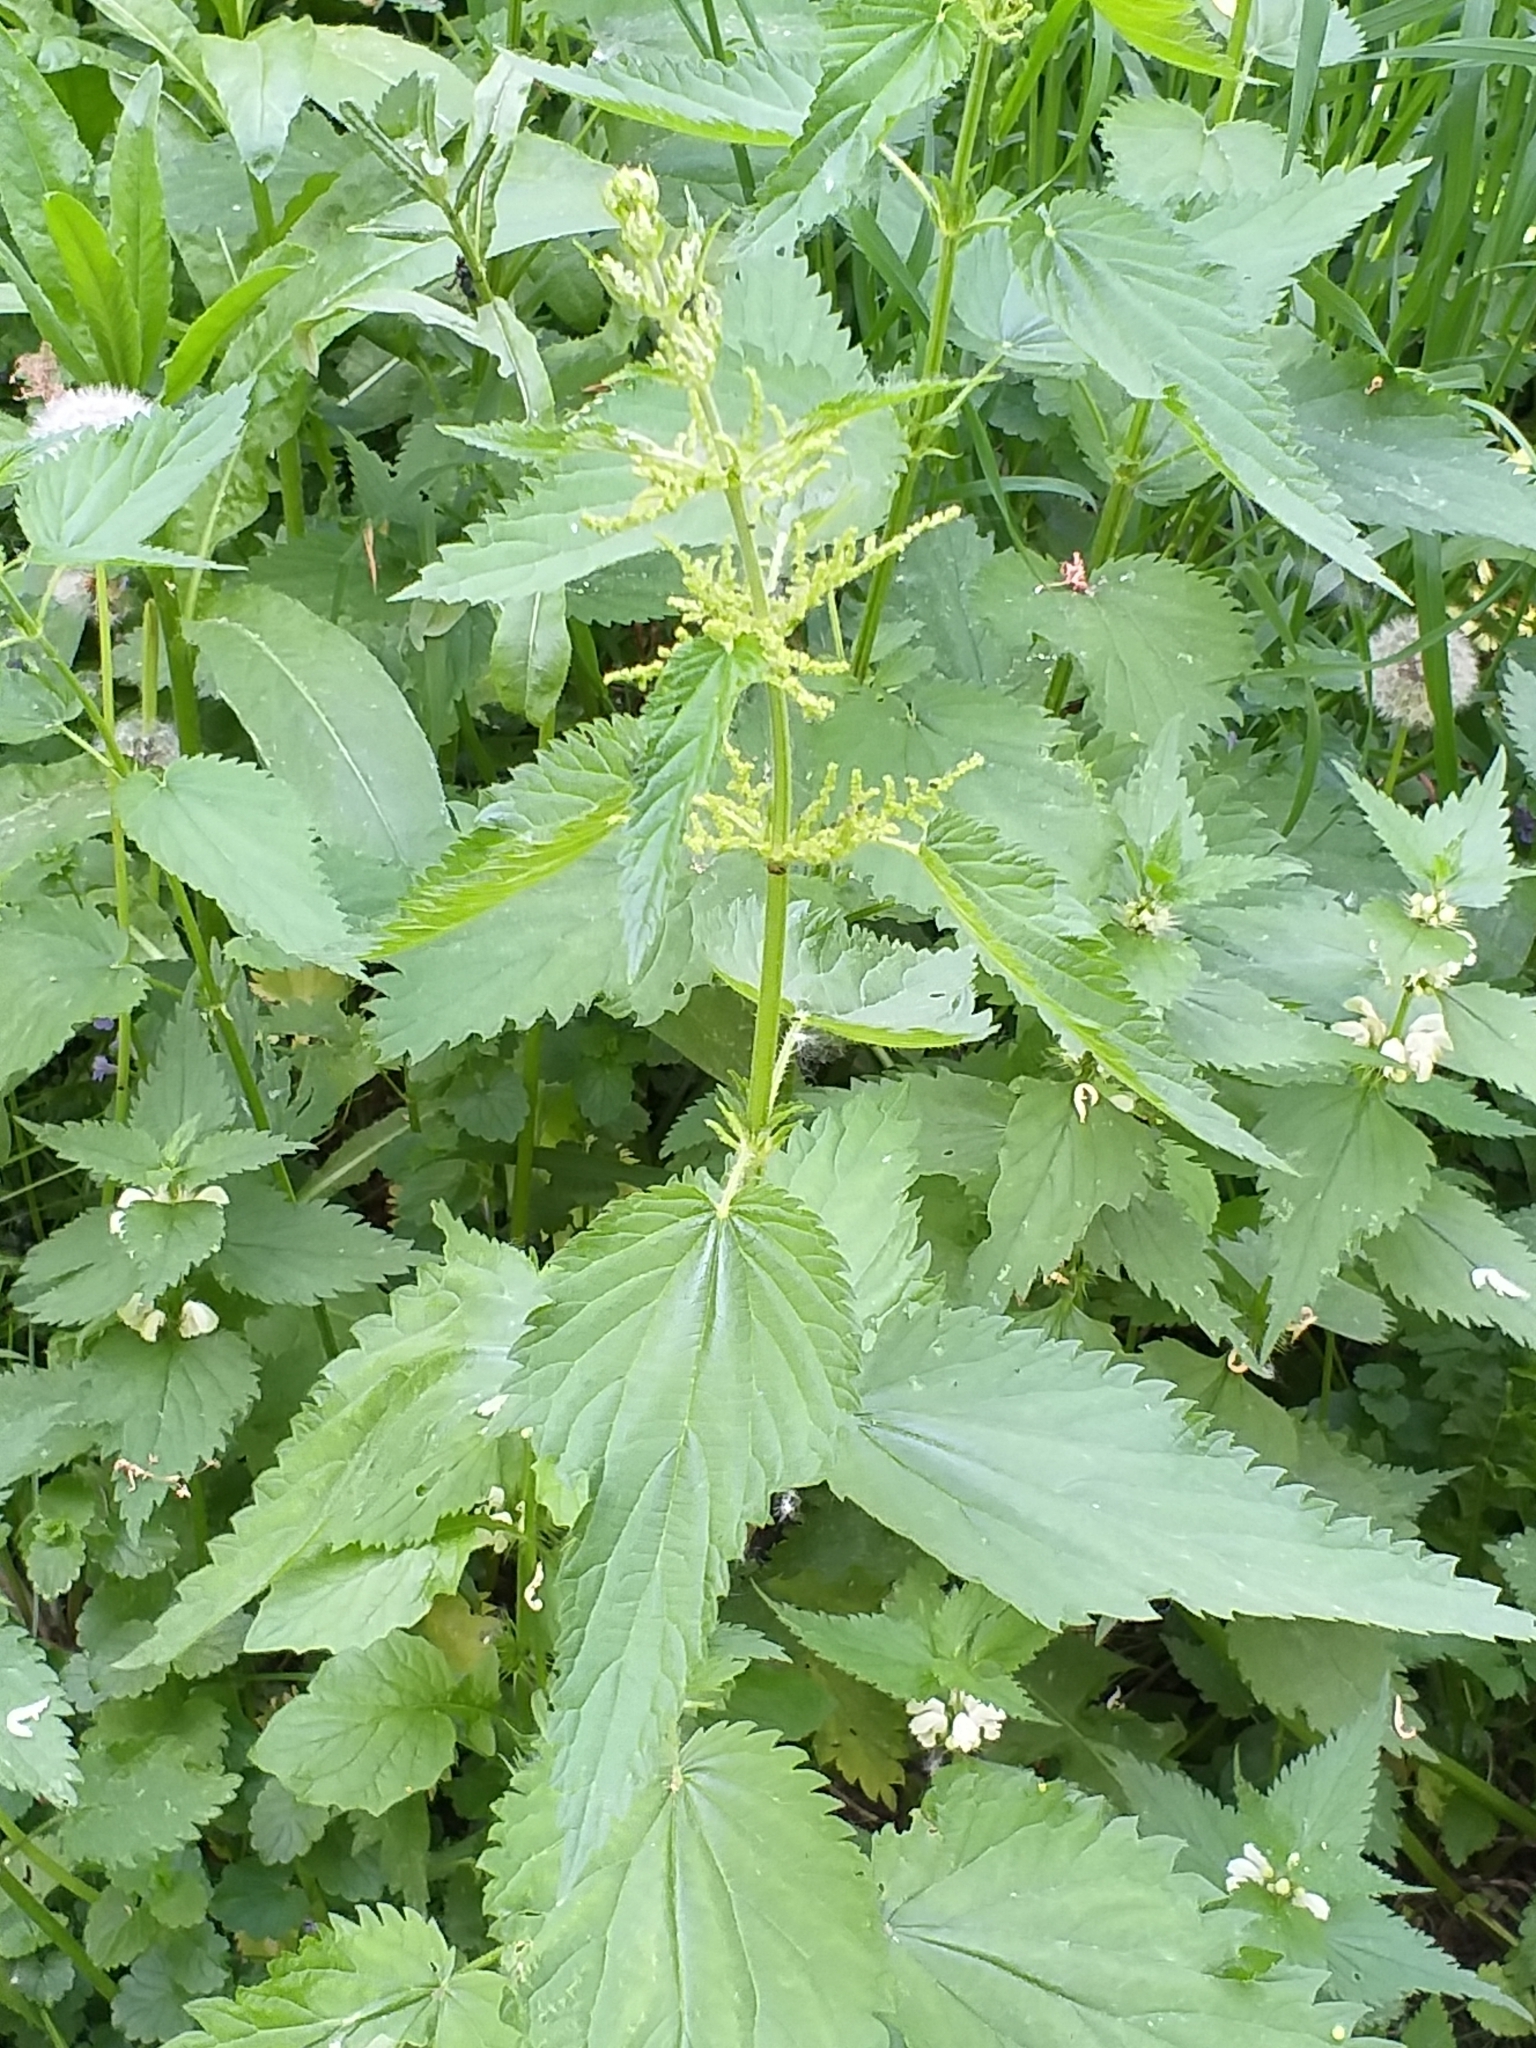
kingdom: Plantae
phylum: Tracheophyta
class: Magnoliopsida
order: Rosales
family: Urticaceae
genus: Urtica
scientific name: Urtica dioica
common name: Common nettle
